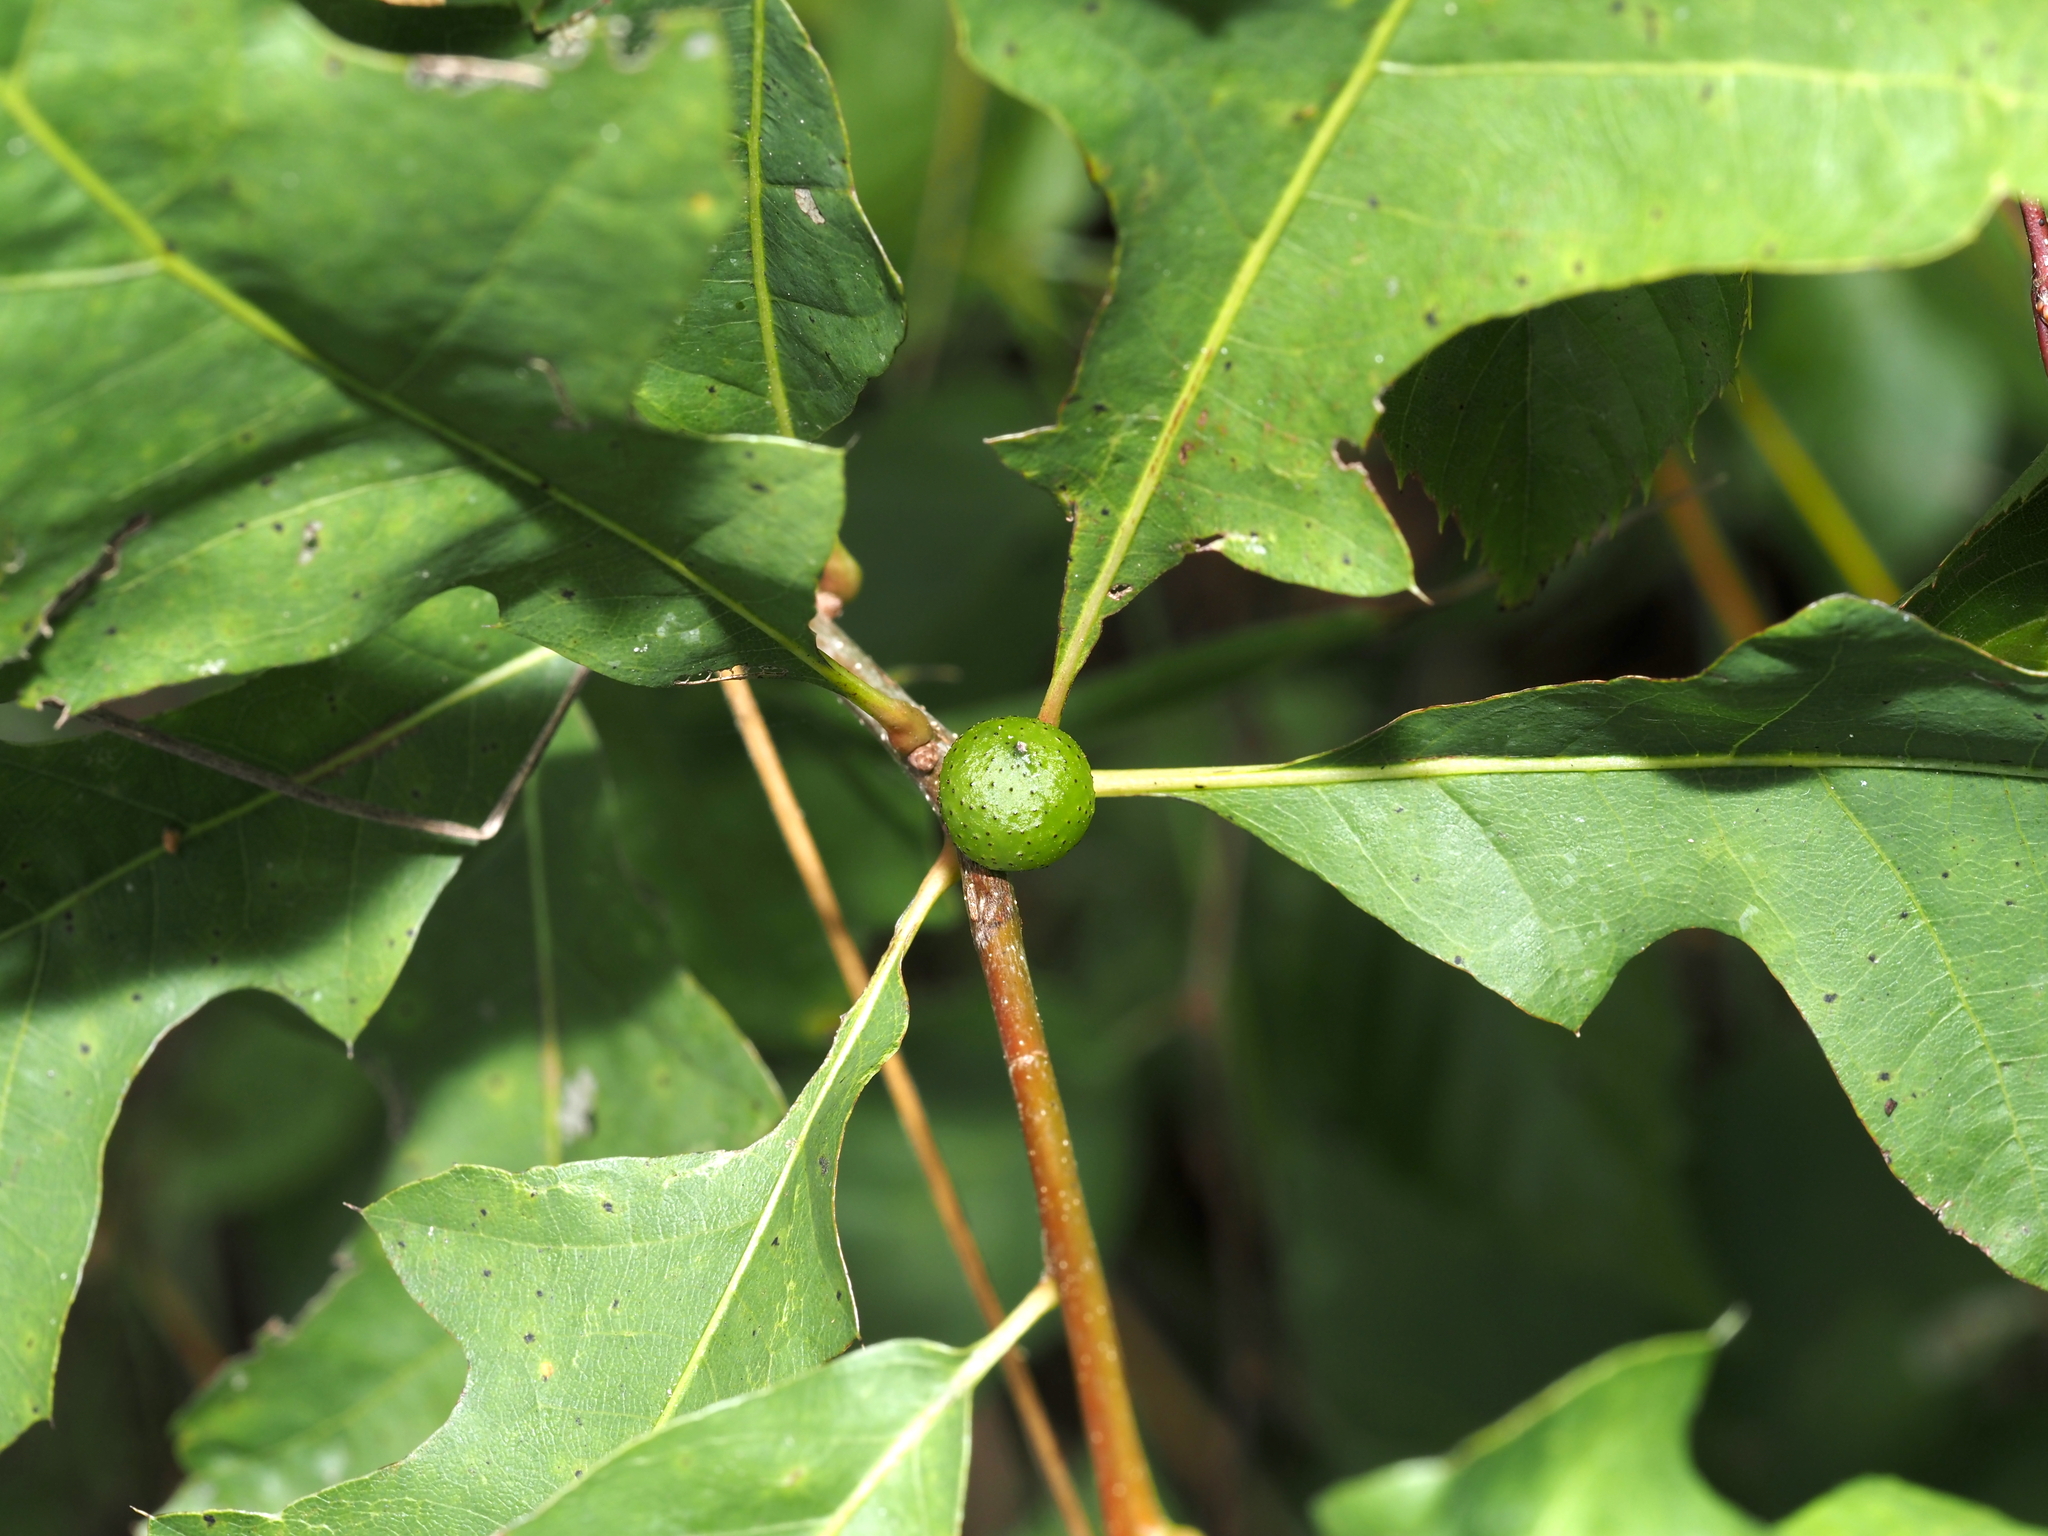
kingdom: Animalia
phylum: Arthropoda
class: Insecta
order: Hymenoptera
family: Cynipidae
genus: Amphibolips
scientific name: Amphibolips
